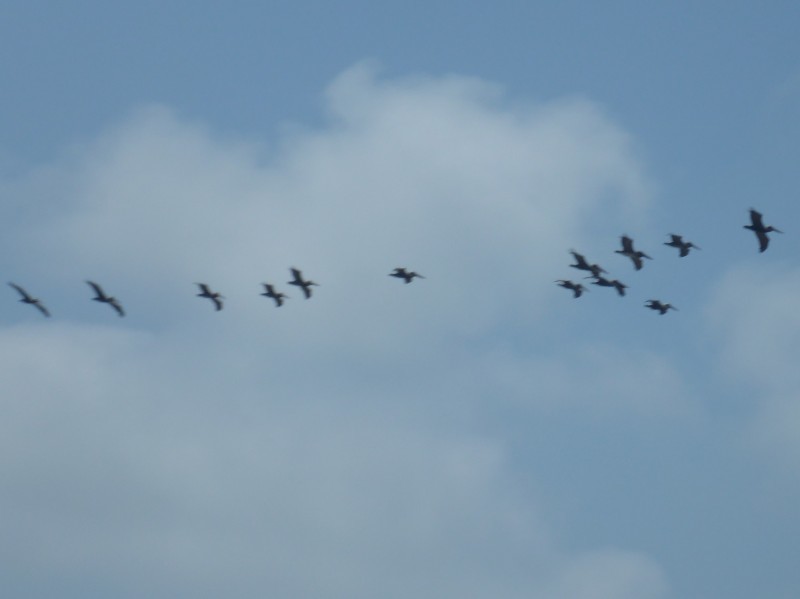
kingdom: Animalia
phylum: Chordata
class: Aves
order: Pelecaniformes
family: Pelecanidae
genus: Pelecanus
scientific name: Pelecanus occidentalis
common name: Brown pelican
